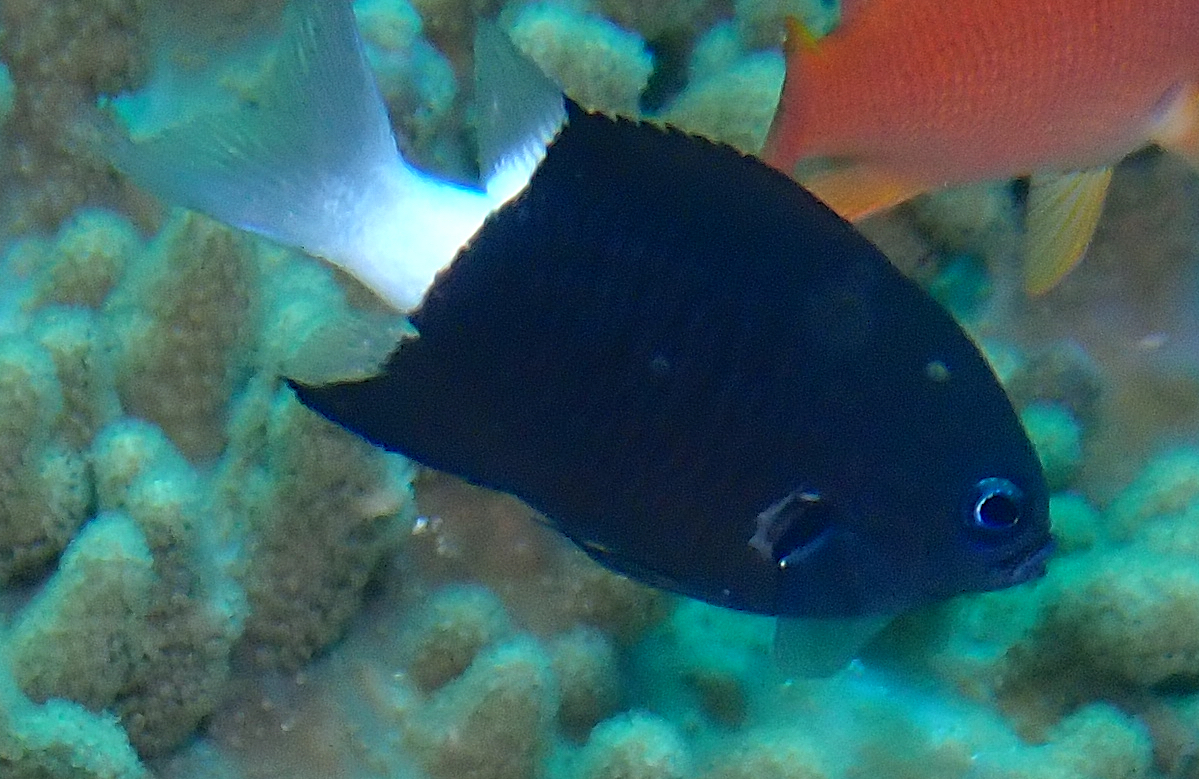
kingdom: Animalia
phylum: Chordata
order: Perciformes
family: Pomacentridae
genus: Pycnochromis
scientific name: Pycnochromis margaritifer
